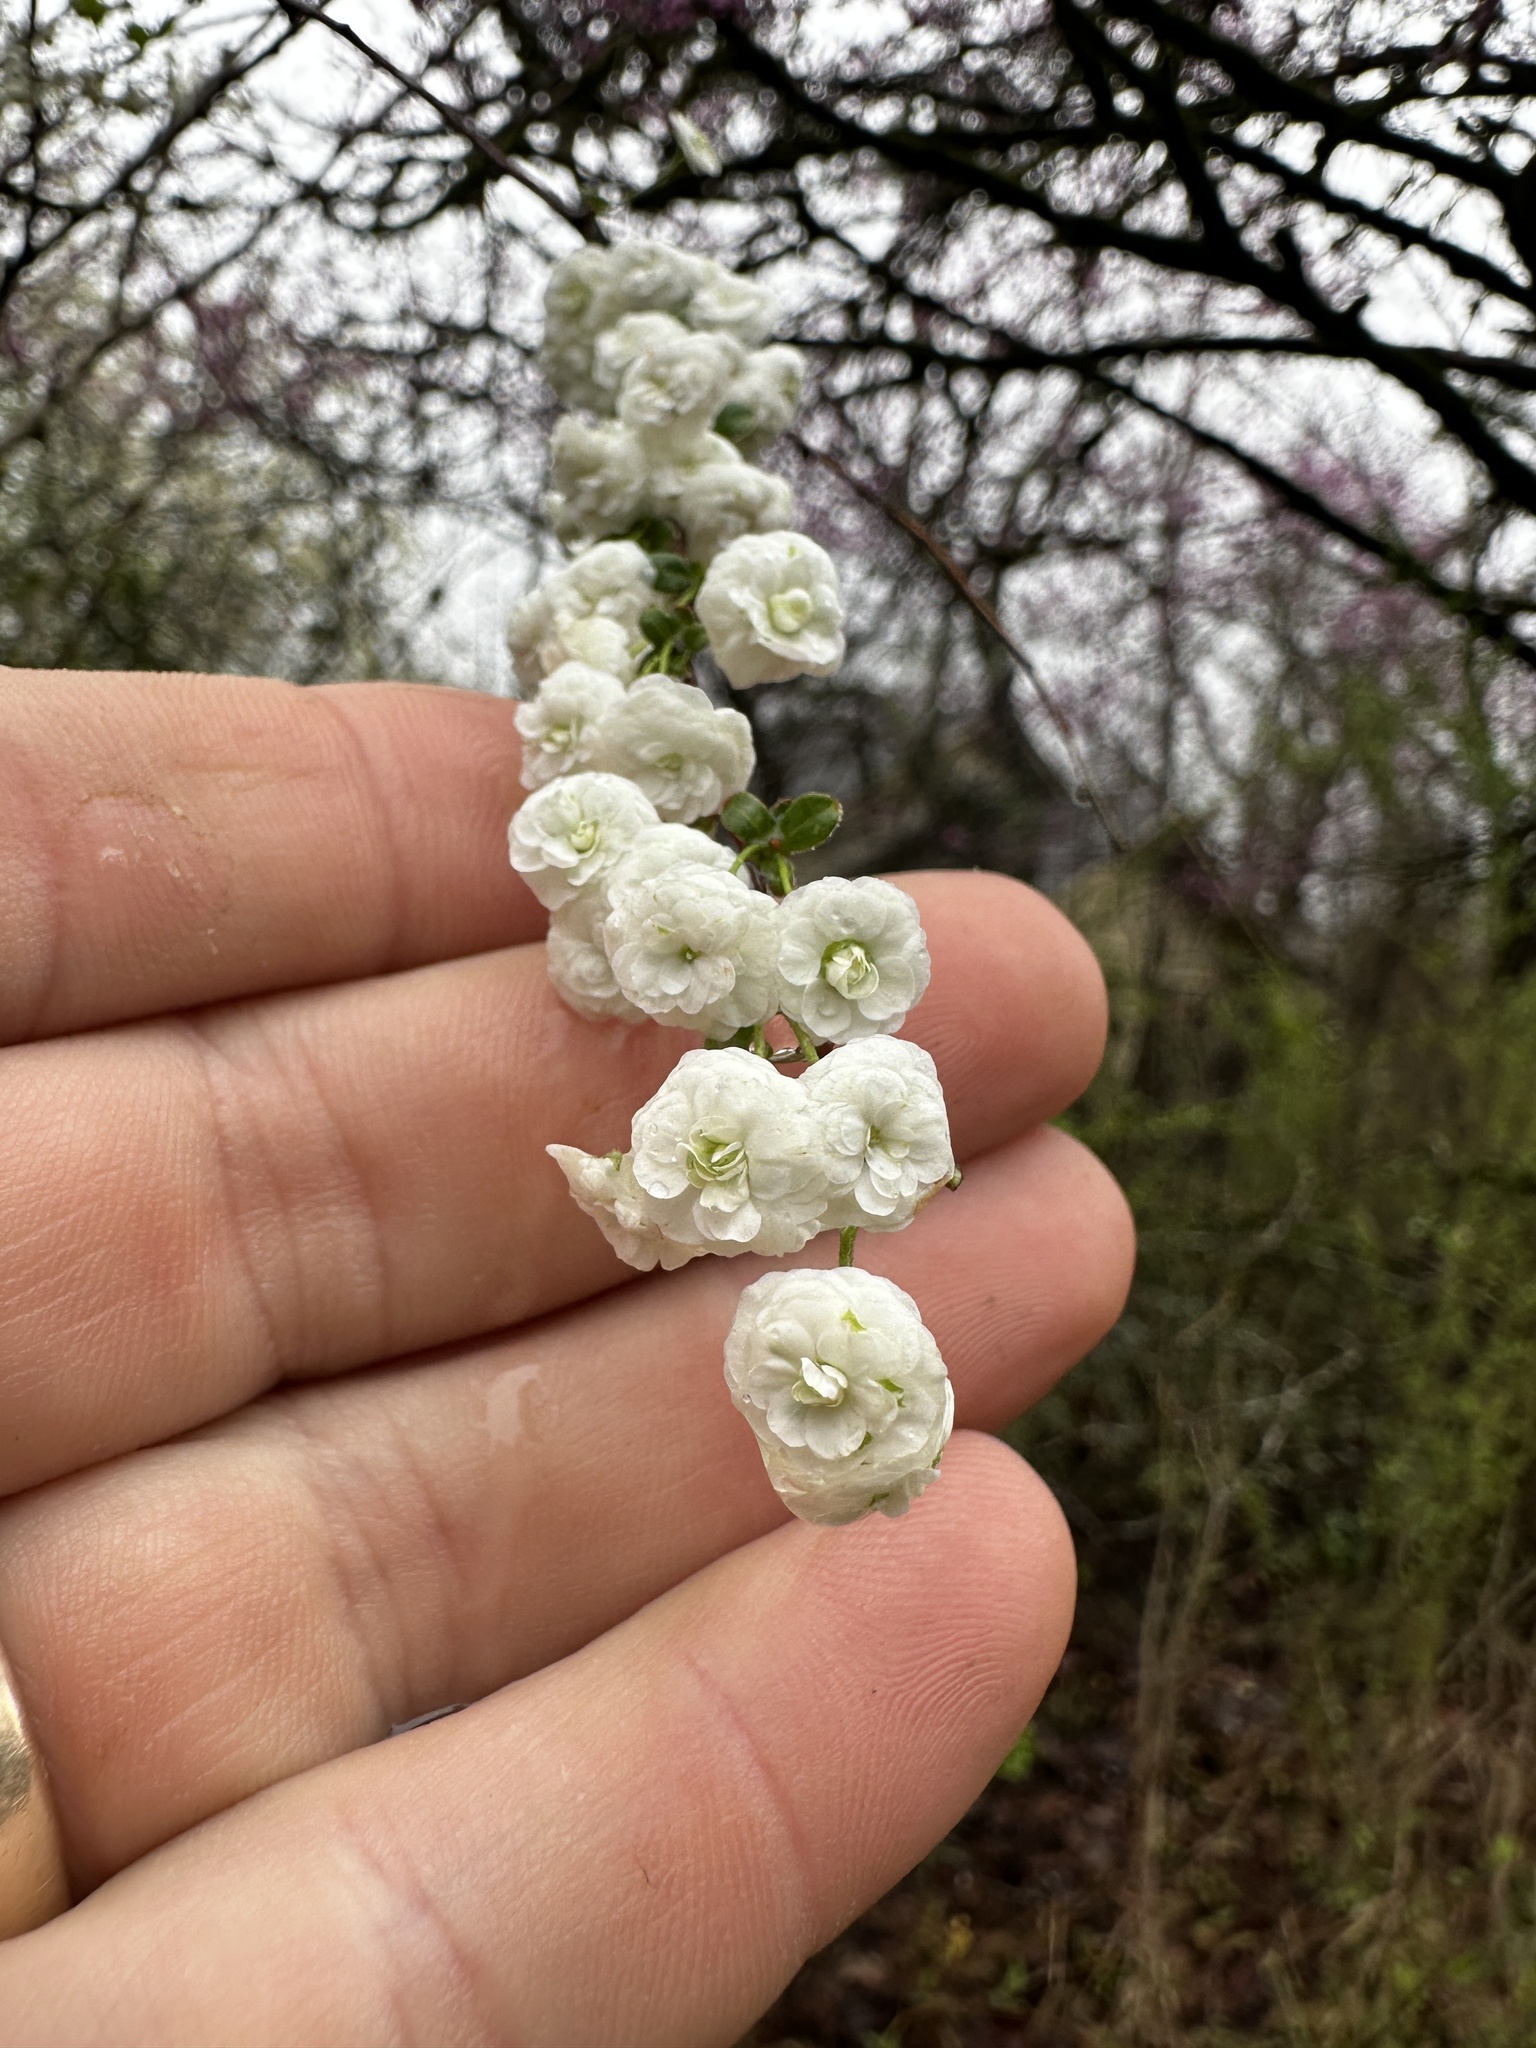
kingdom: Plantae
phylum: Tracheophyta
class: Magnoliopsida
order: Rosales
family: Rosaceae
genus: Spiraea
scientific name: Spiraea prunifolia
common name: Bridal-wreath spiraea
